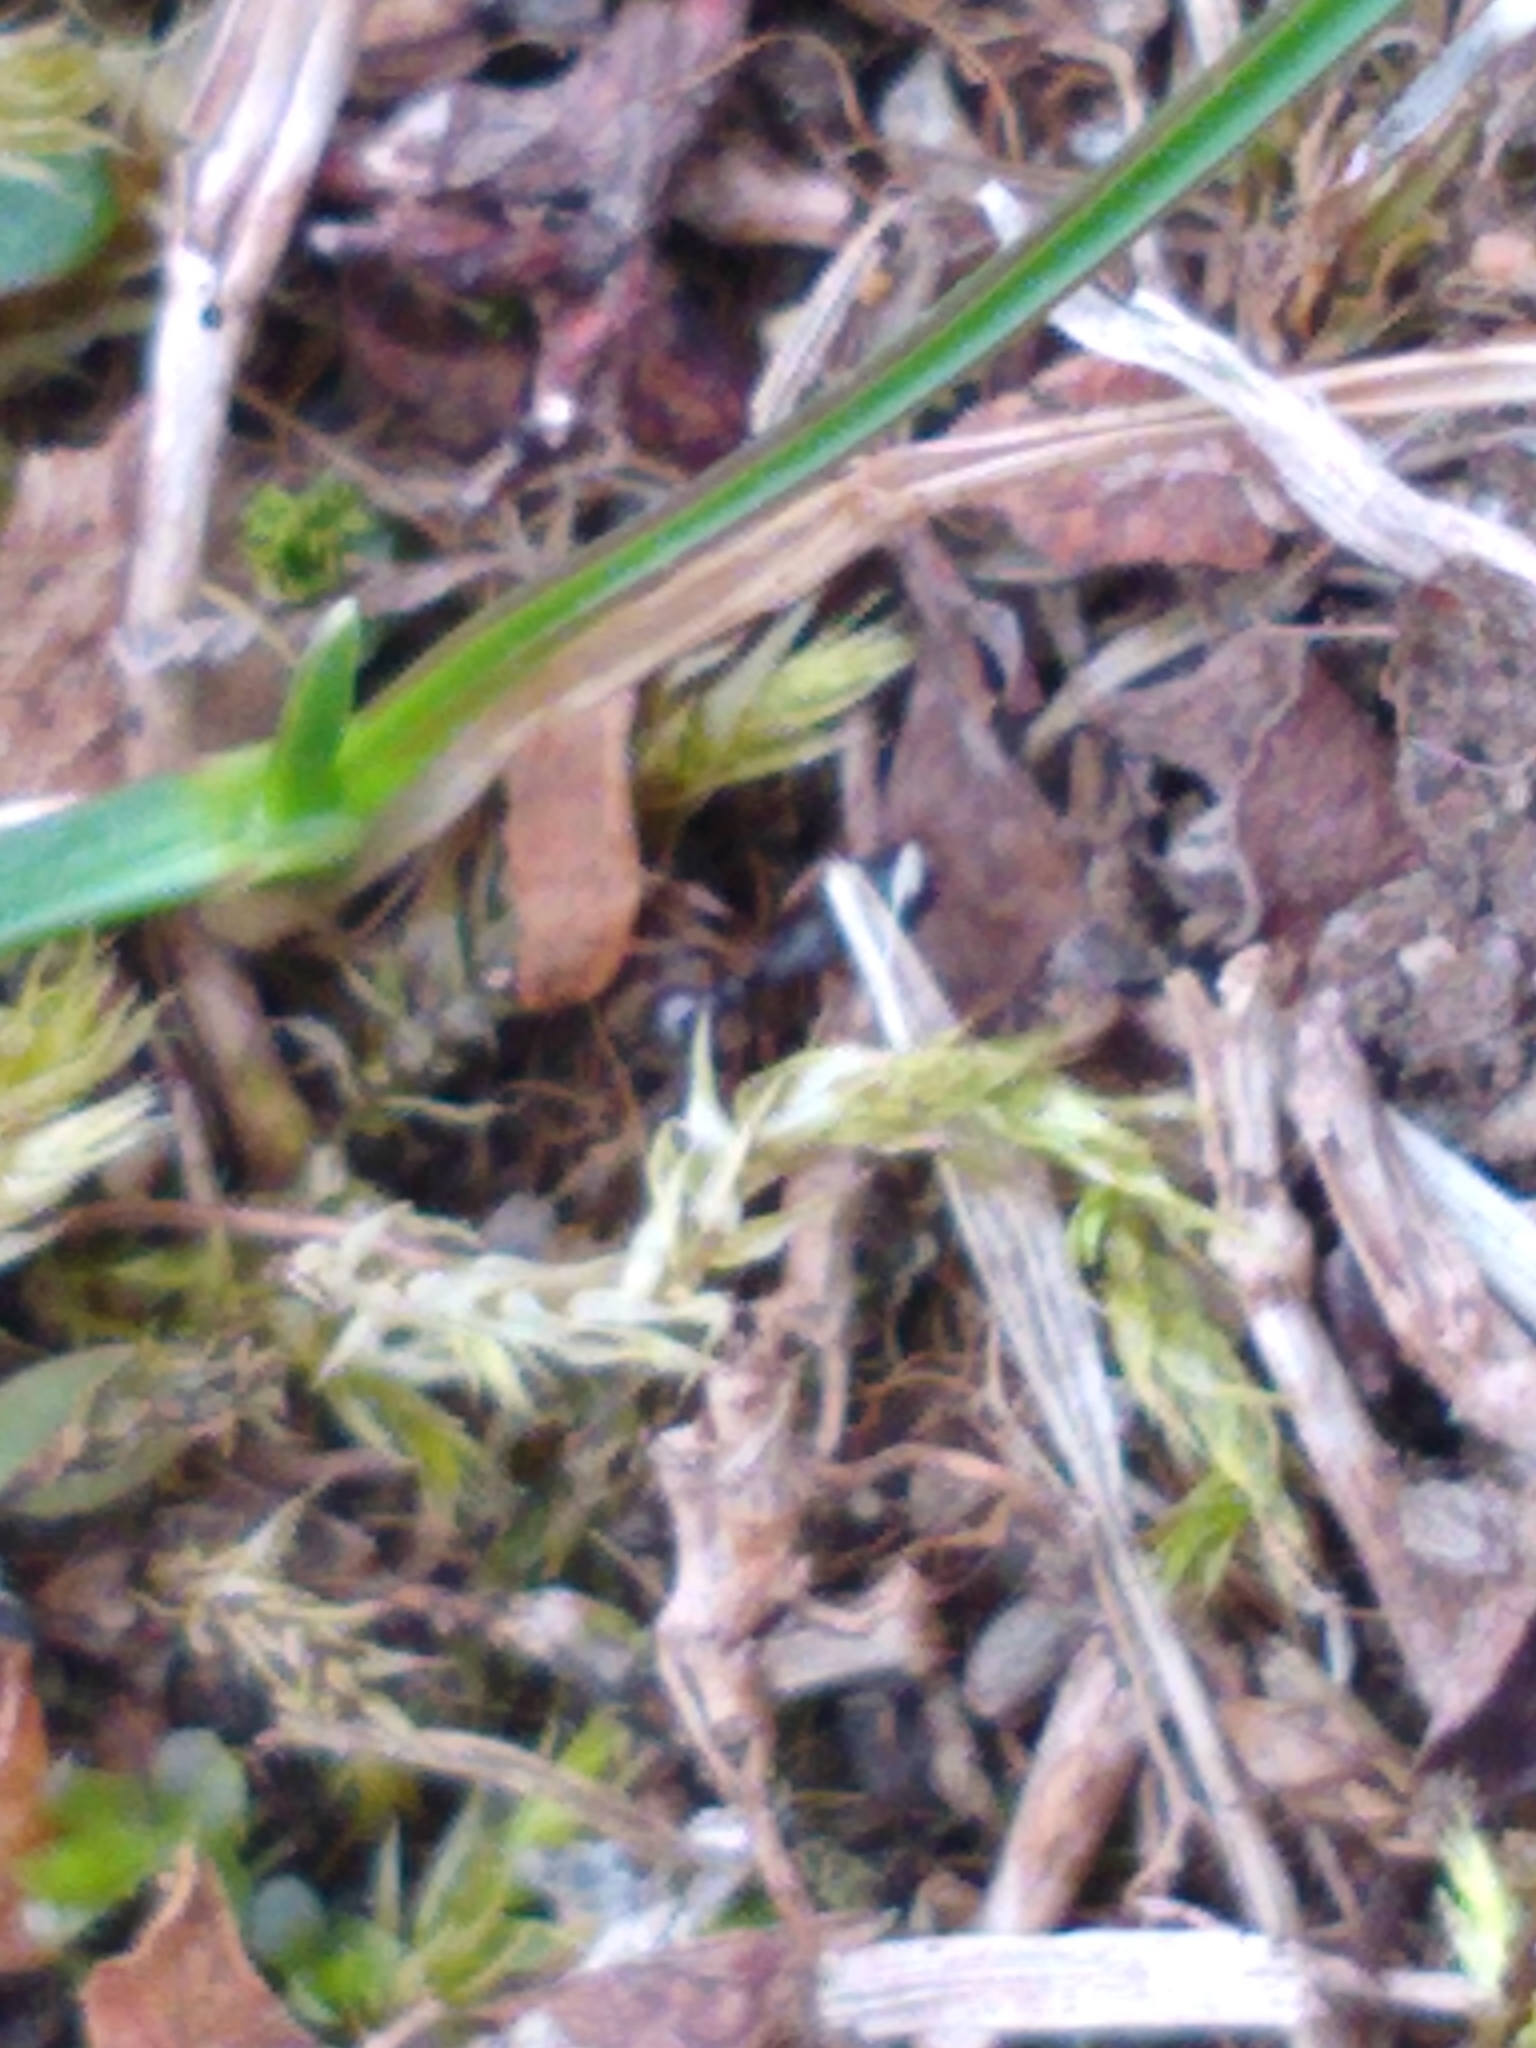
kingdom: Animalia
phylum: Arthropoda
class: Insecta
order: Hymenoptera
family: Formicidae
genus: Tetramorium
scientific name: Tetramorium immigrans
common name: Pavement ant
